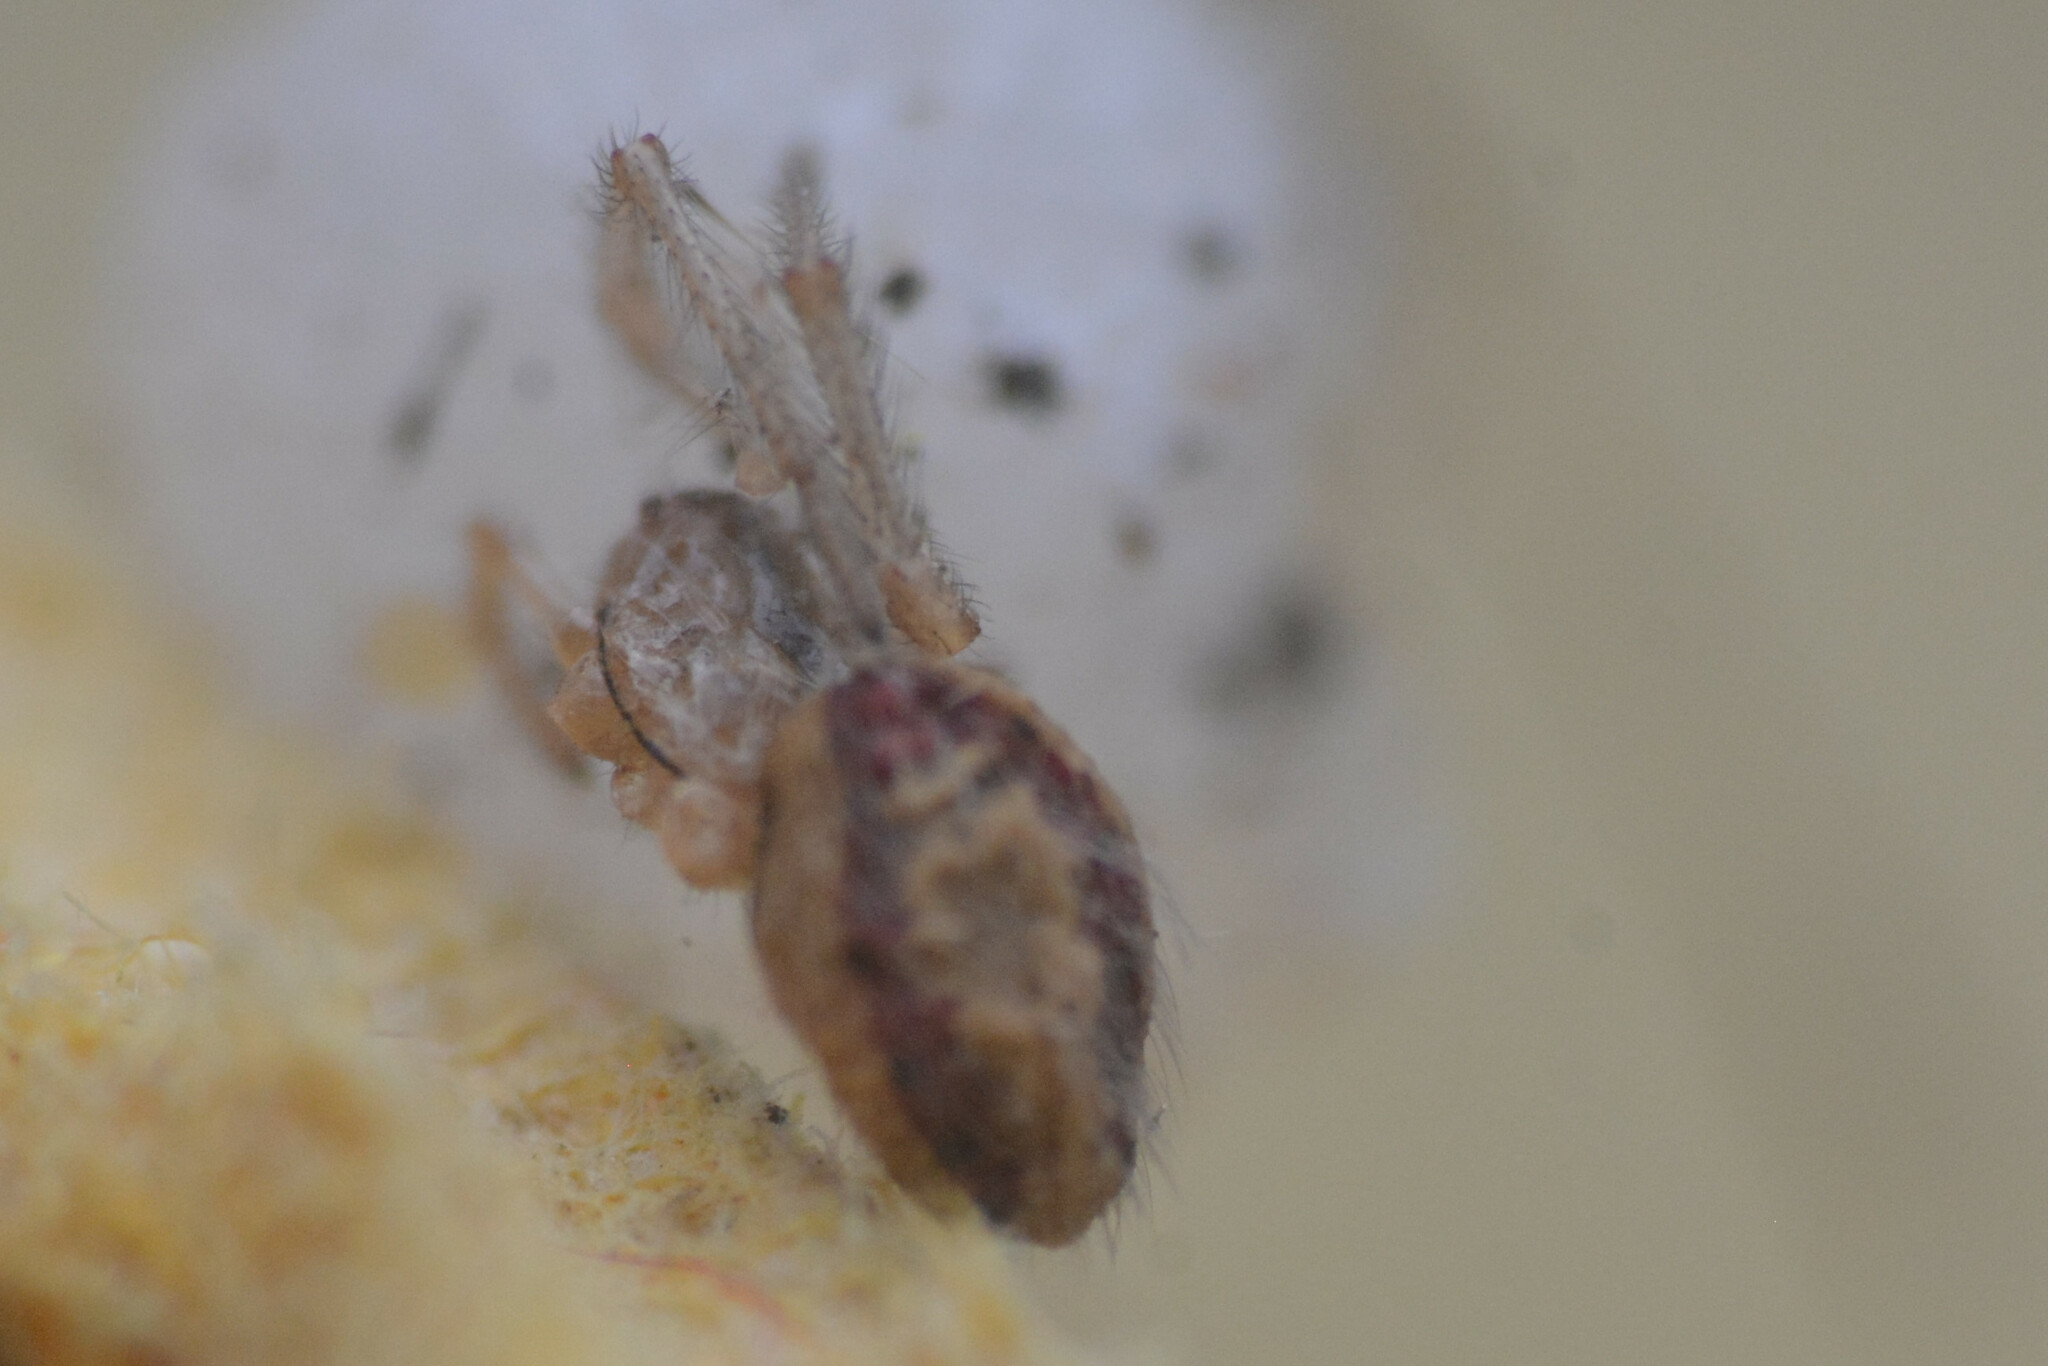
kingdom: Animalia
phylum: Arthropoda
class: Arachnida
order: Araneae
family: Theridiidae
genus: Enoplognatha
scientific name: Enoplognatha
